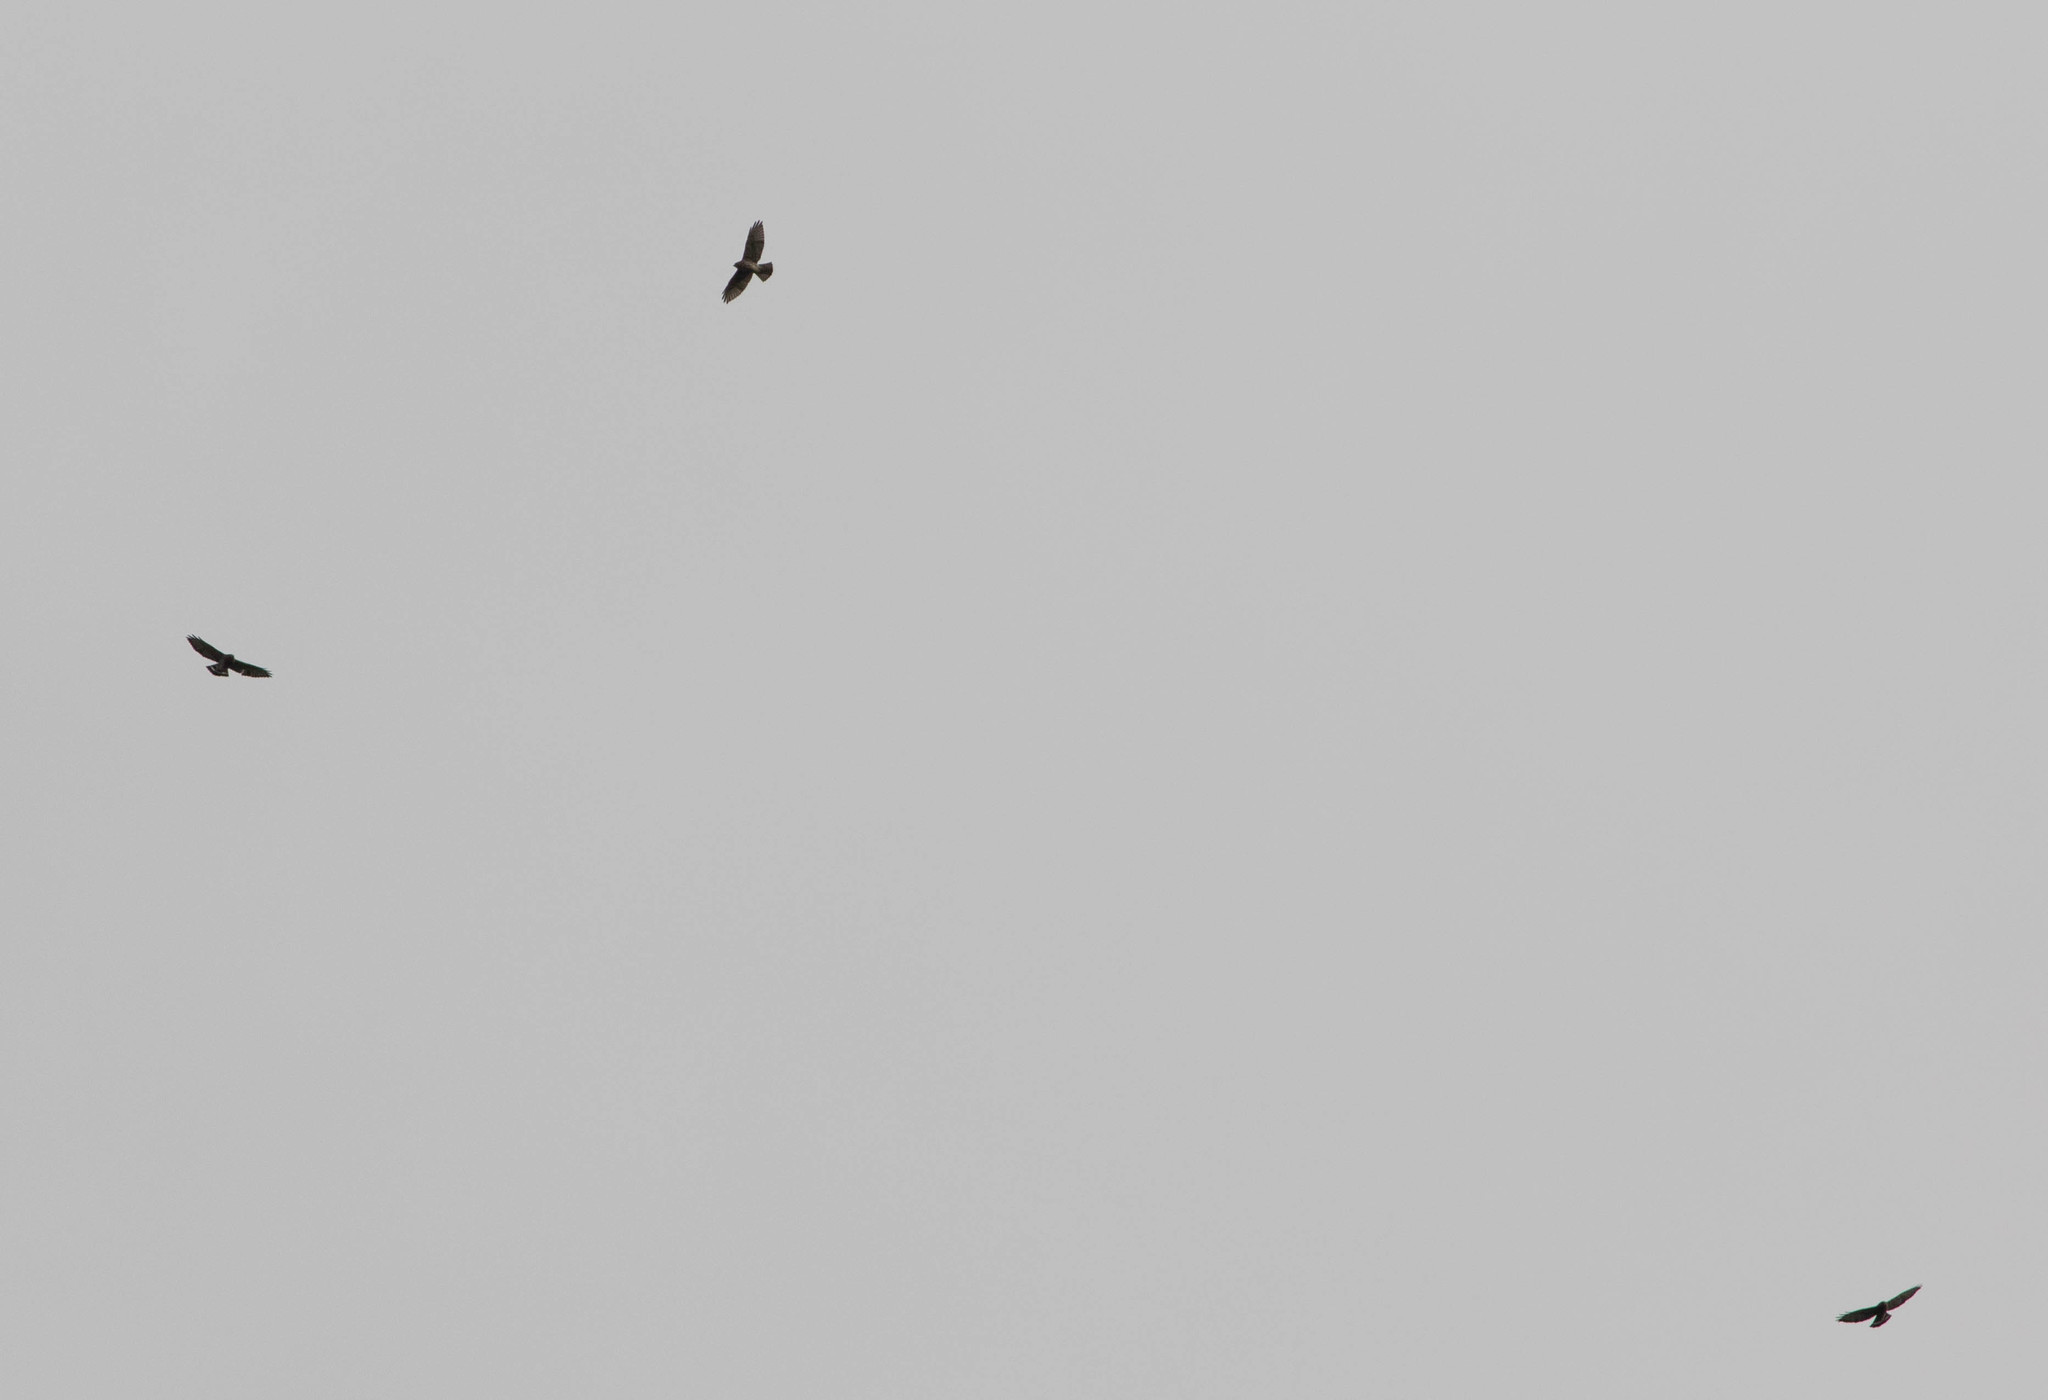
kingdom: Animalia
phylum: Chordata
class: Aves
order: Accipitriformes
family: Accipitridae
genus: Buteo
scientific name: Buteo platypterus
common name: Broad-winged hawk
